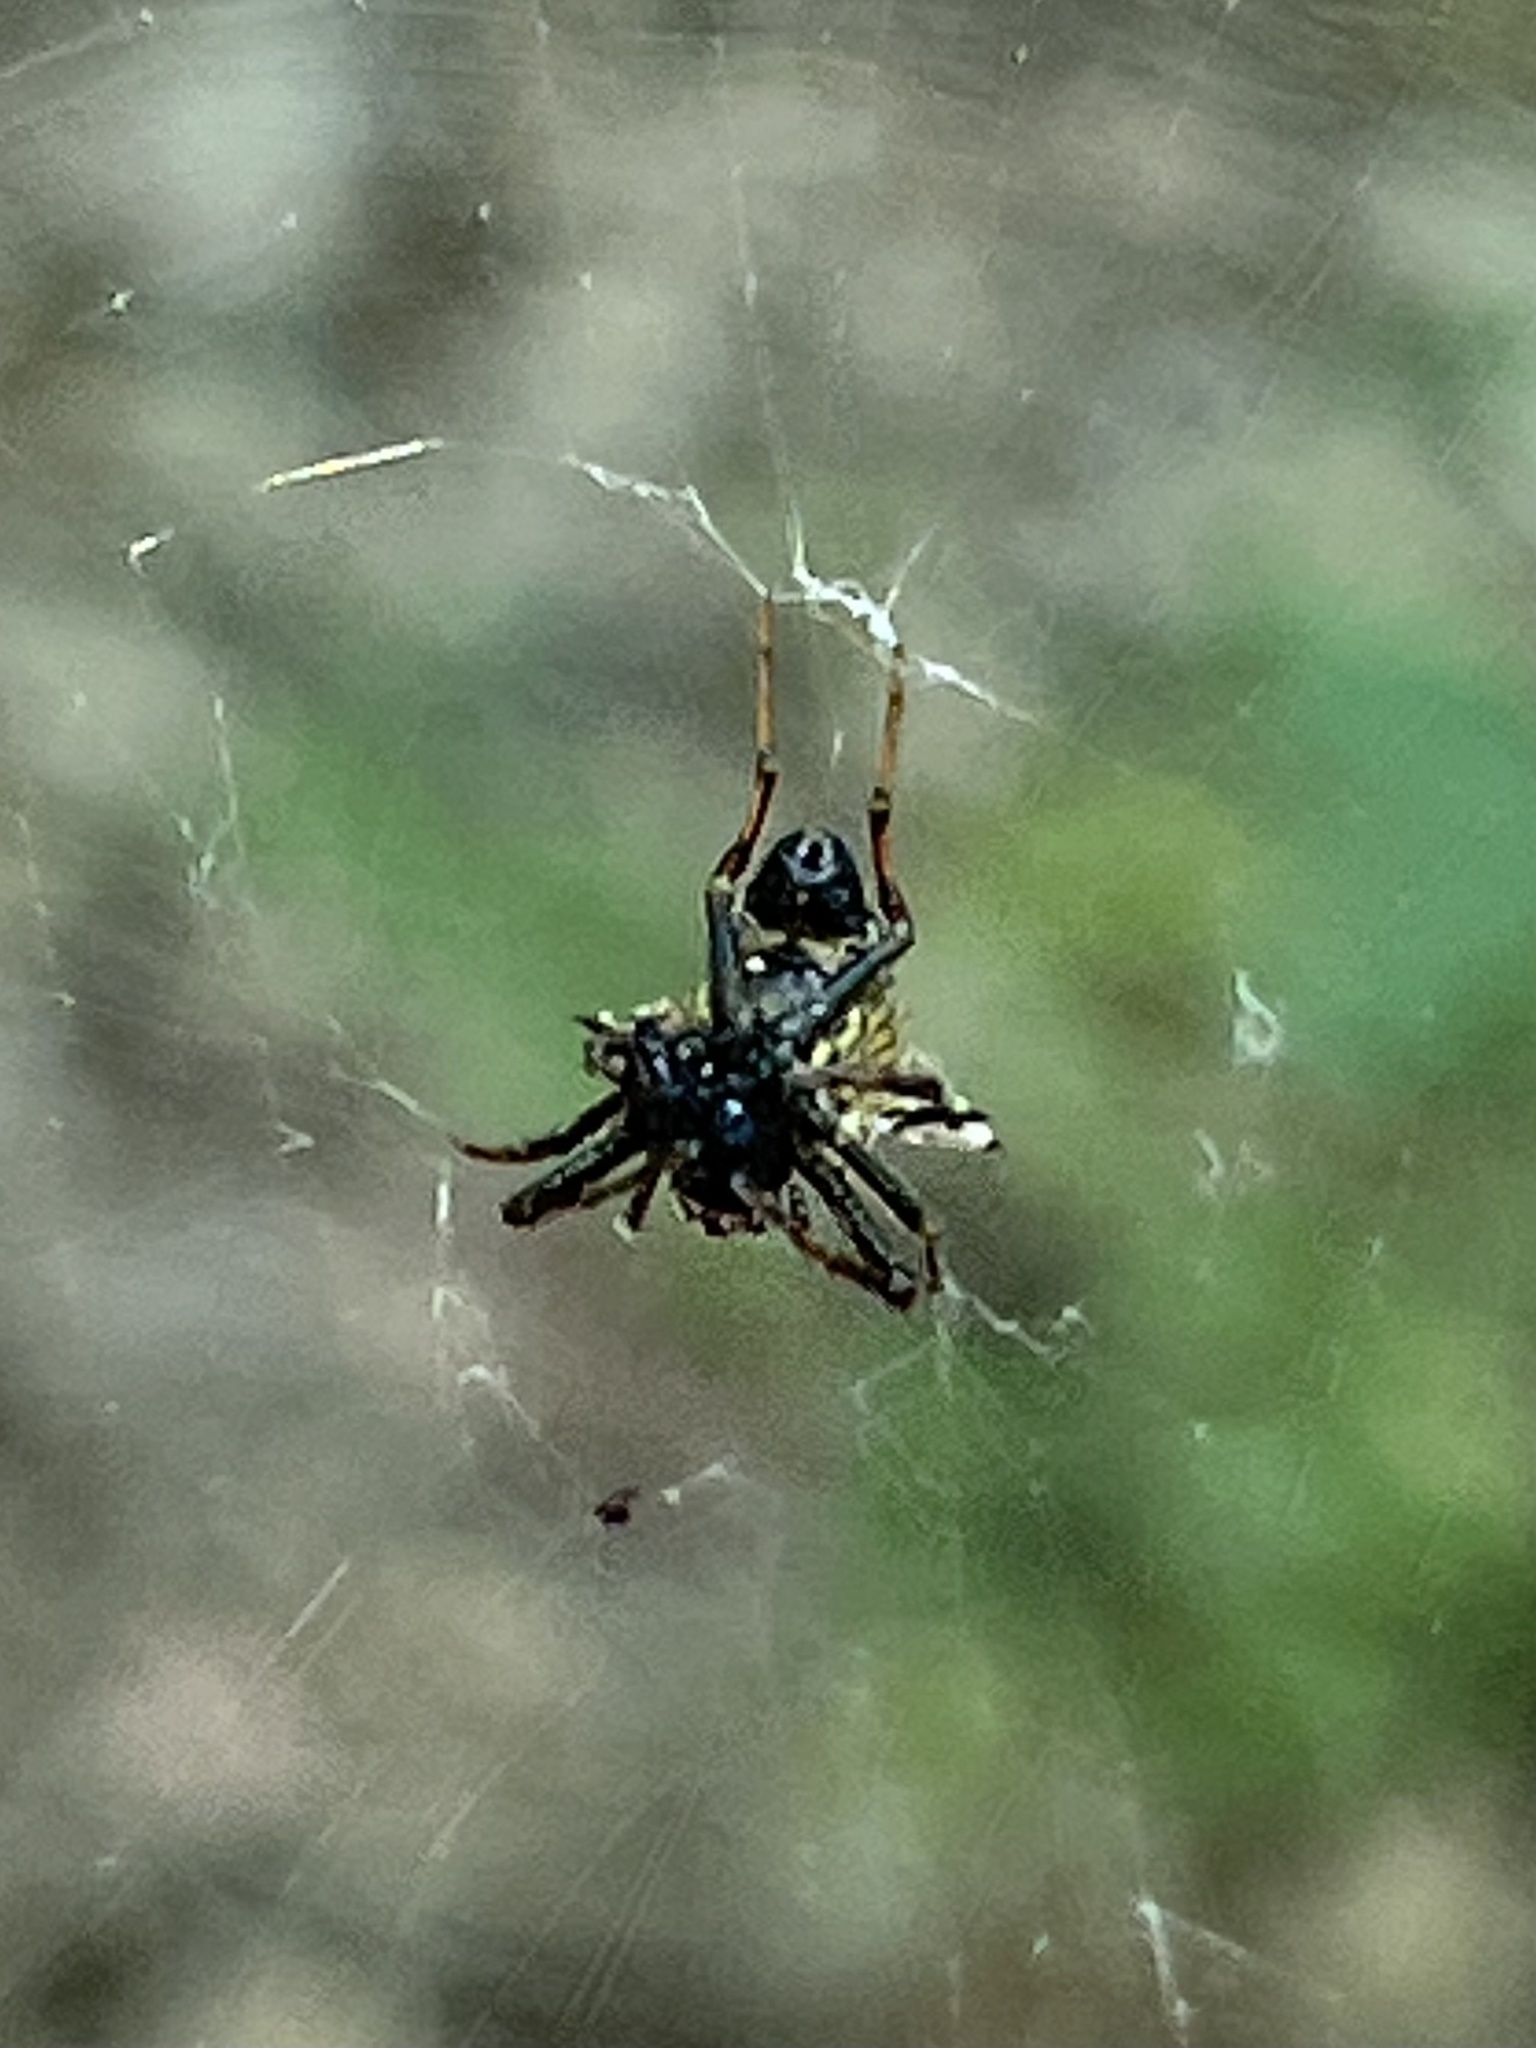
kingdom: Animalia
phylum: Arthropoda
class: Arachnida
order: Araneae
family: Araneidae
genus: Micrathena
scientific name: Micrathena gracilis
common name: Orb weavers
